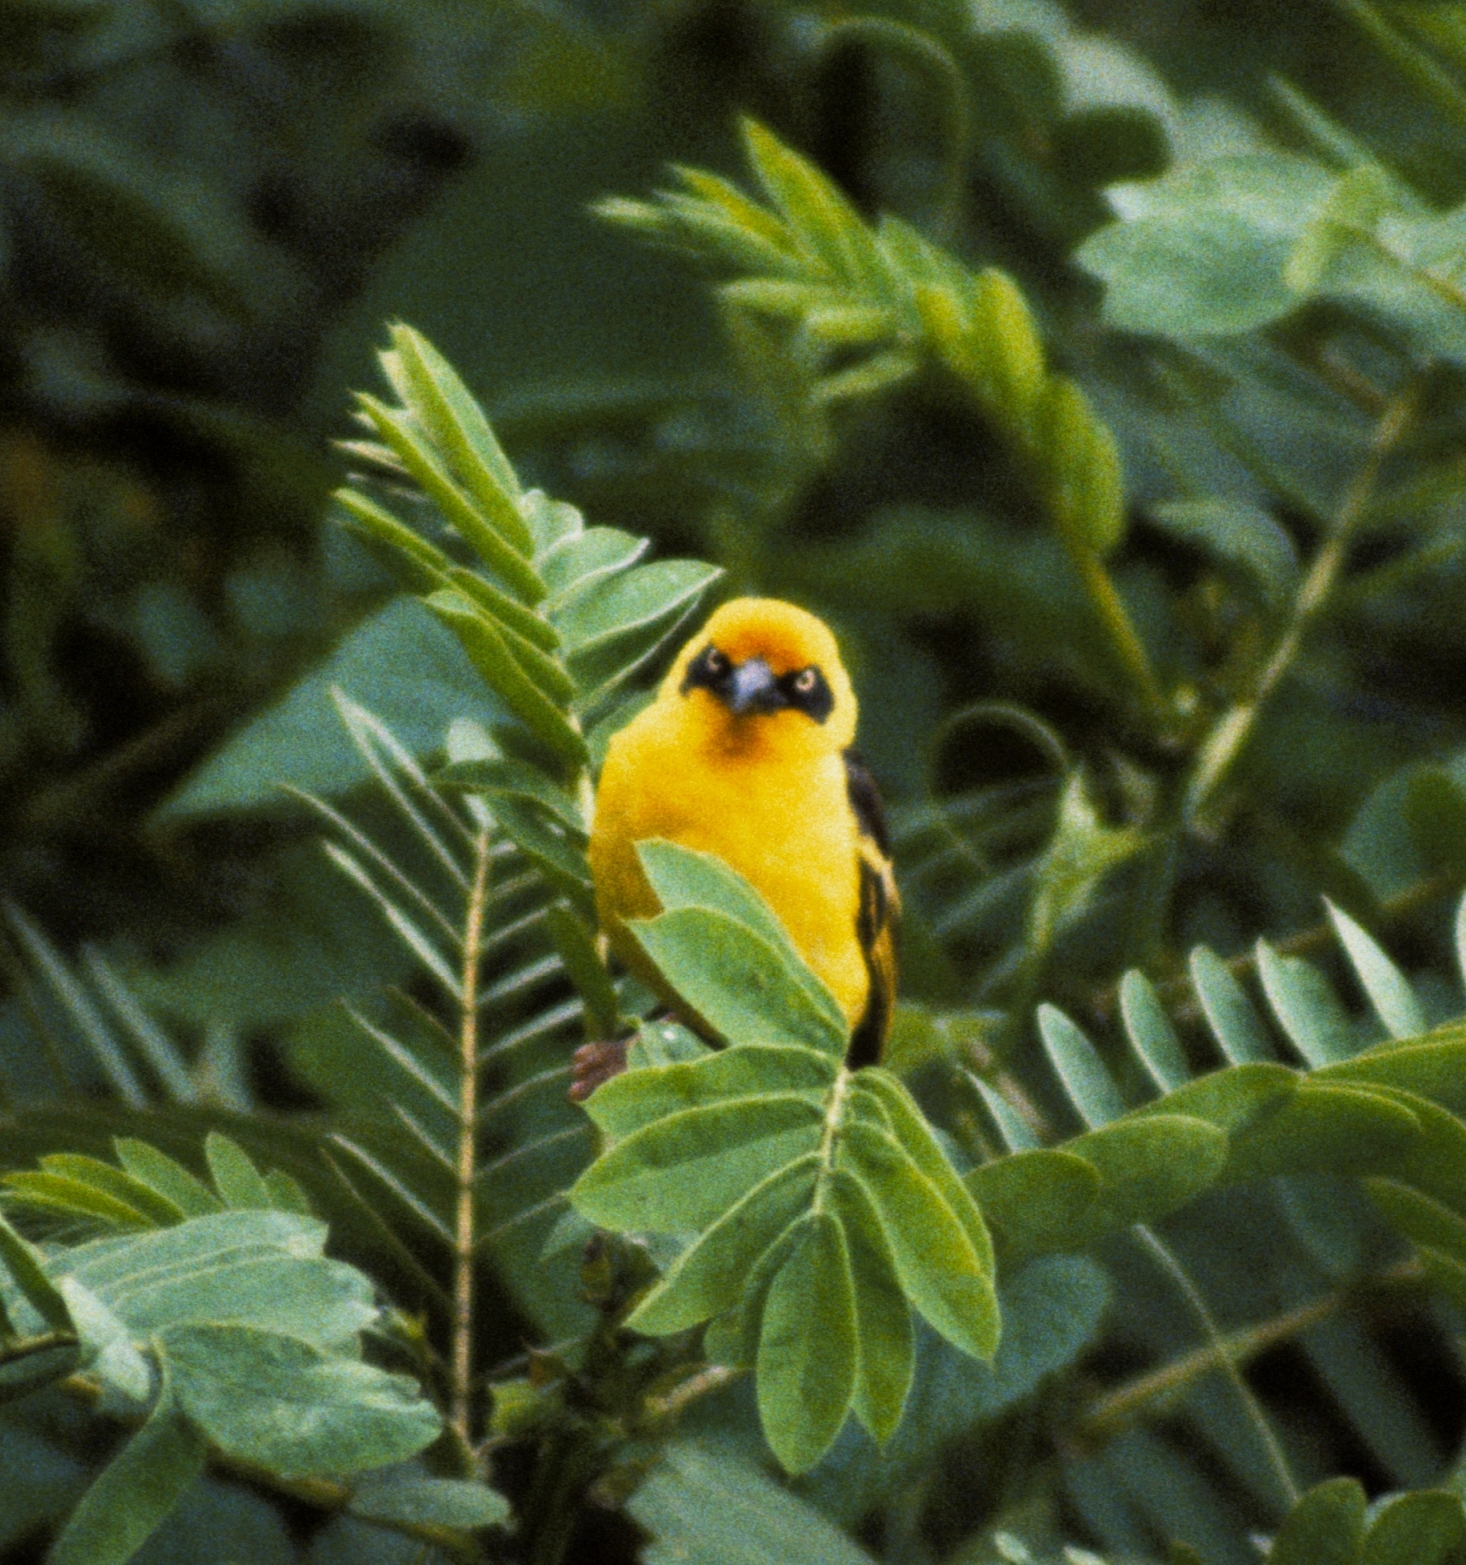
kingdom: Animalia
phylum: Chordata
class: Aves
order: Passeriformes
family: Ploceidae
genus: Ploceus
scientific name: Ploceus baglafecht
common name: Baglafecht weaver
